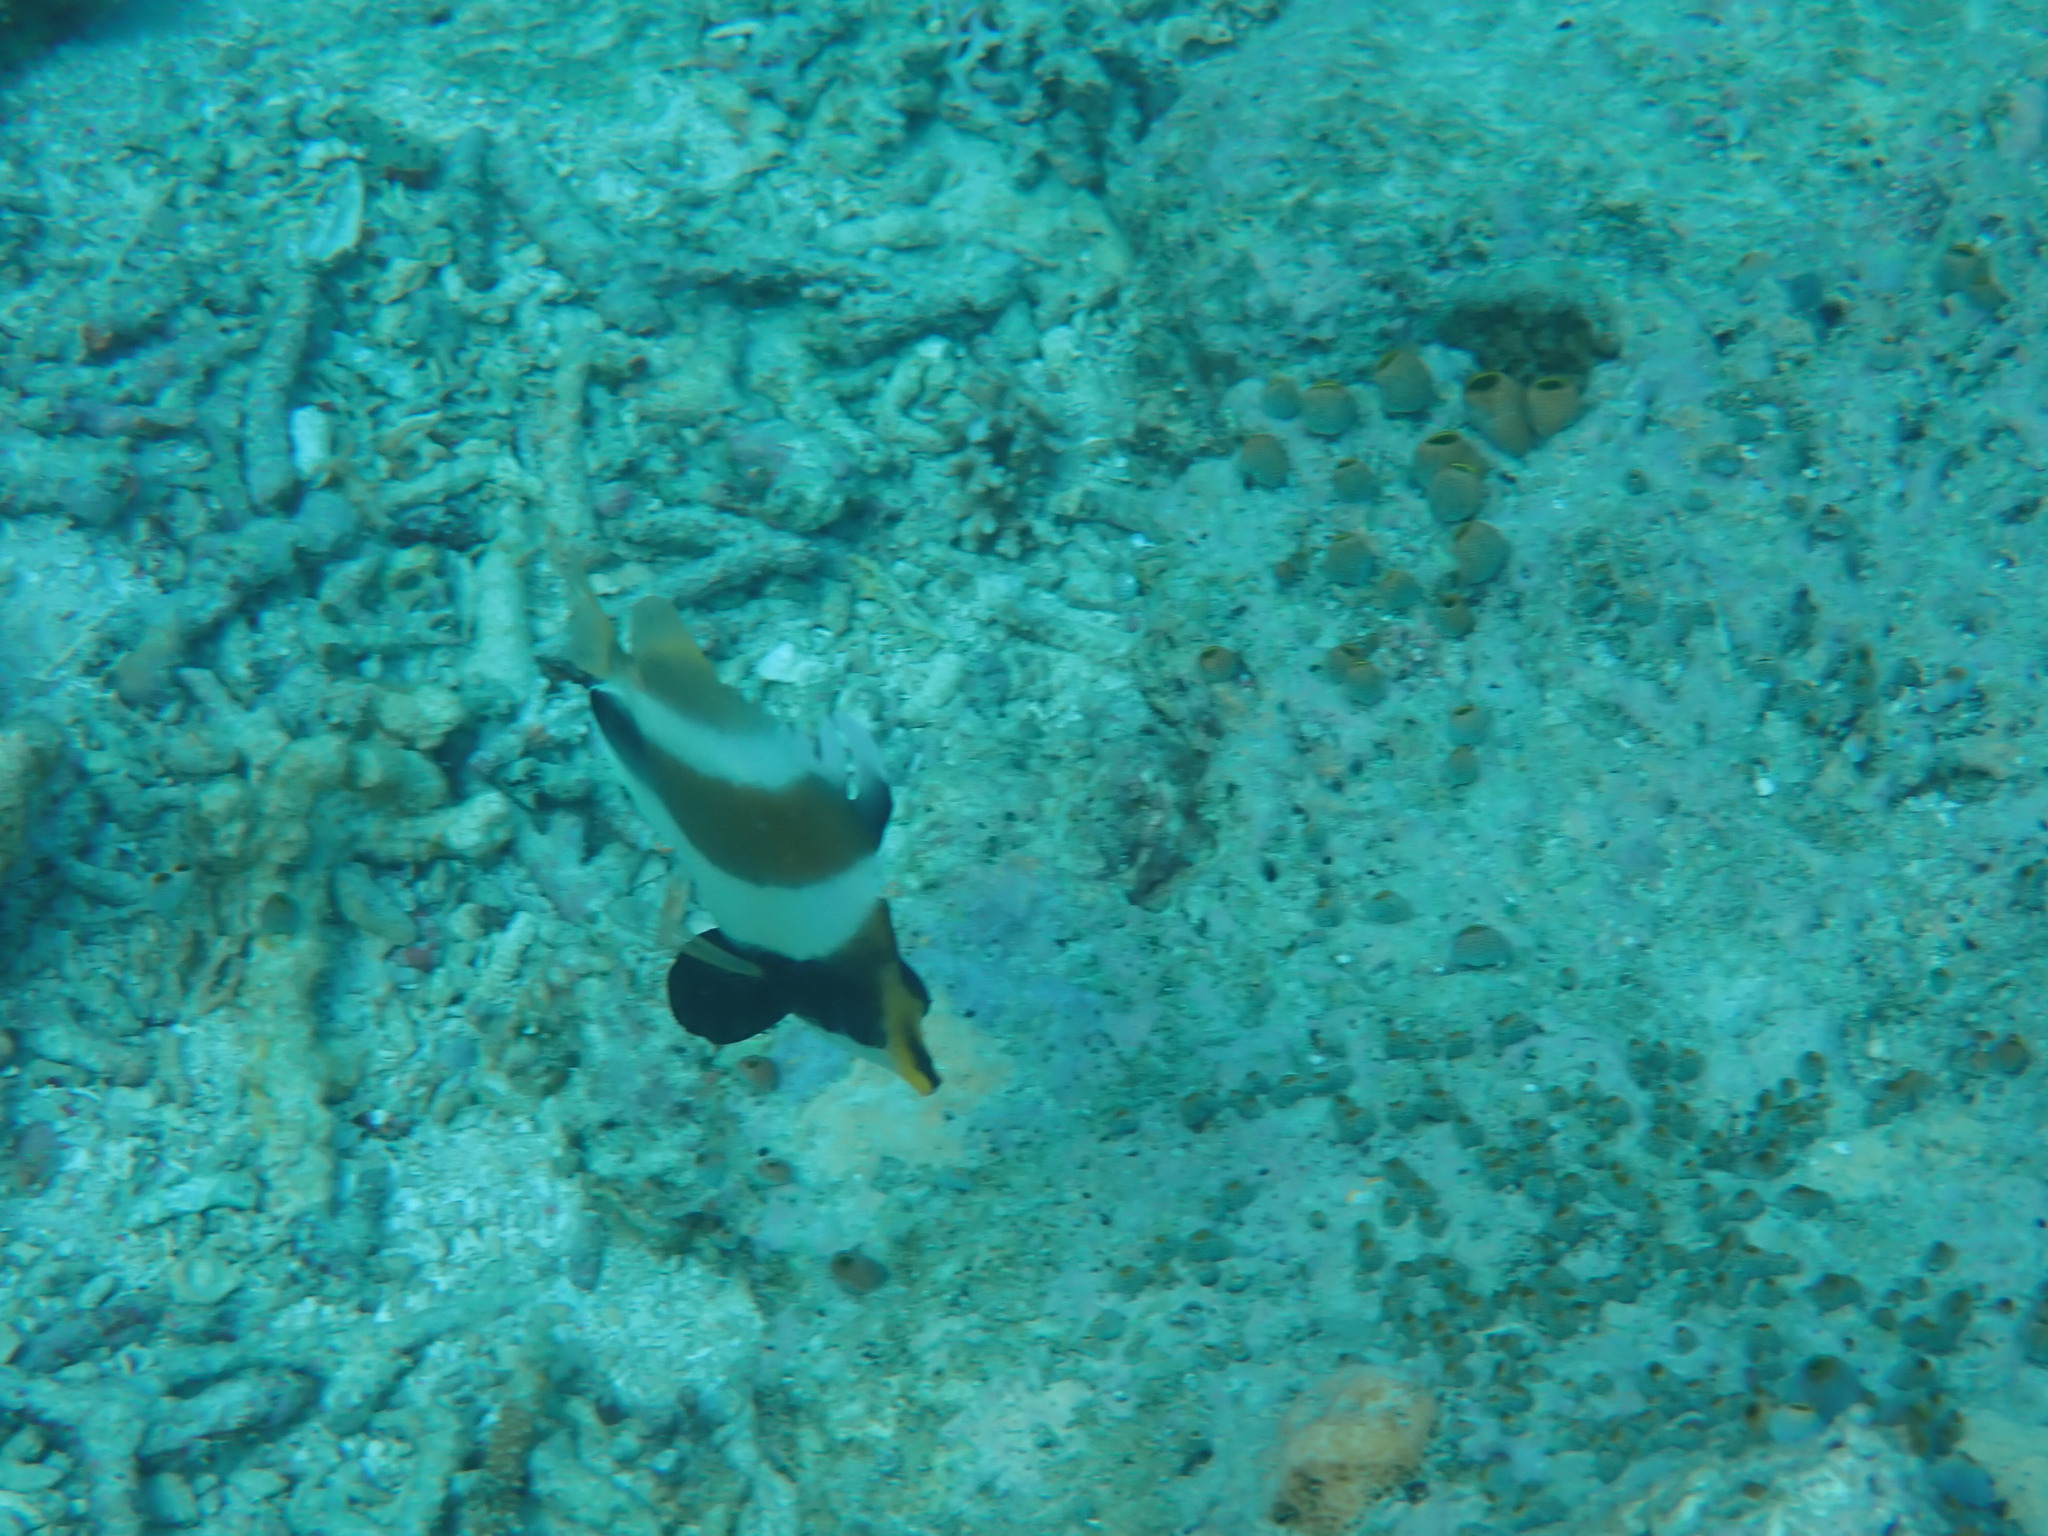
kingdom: Animalia
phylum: Chordata
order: Perciformes
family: Chaetodontidae
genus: Heniochus
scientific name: Heniochus chrysostomus
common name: Horned bannerfish
